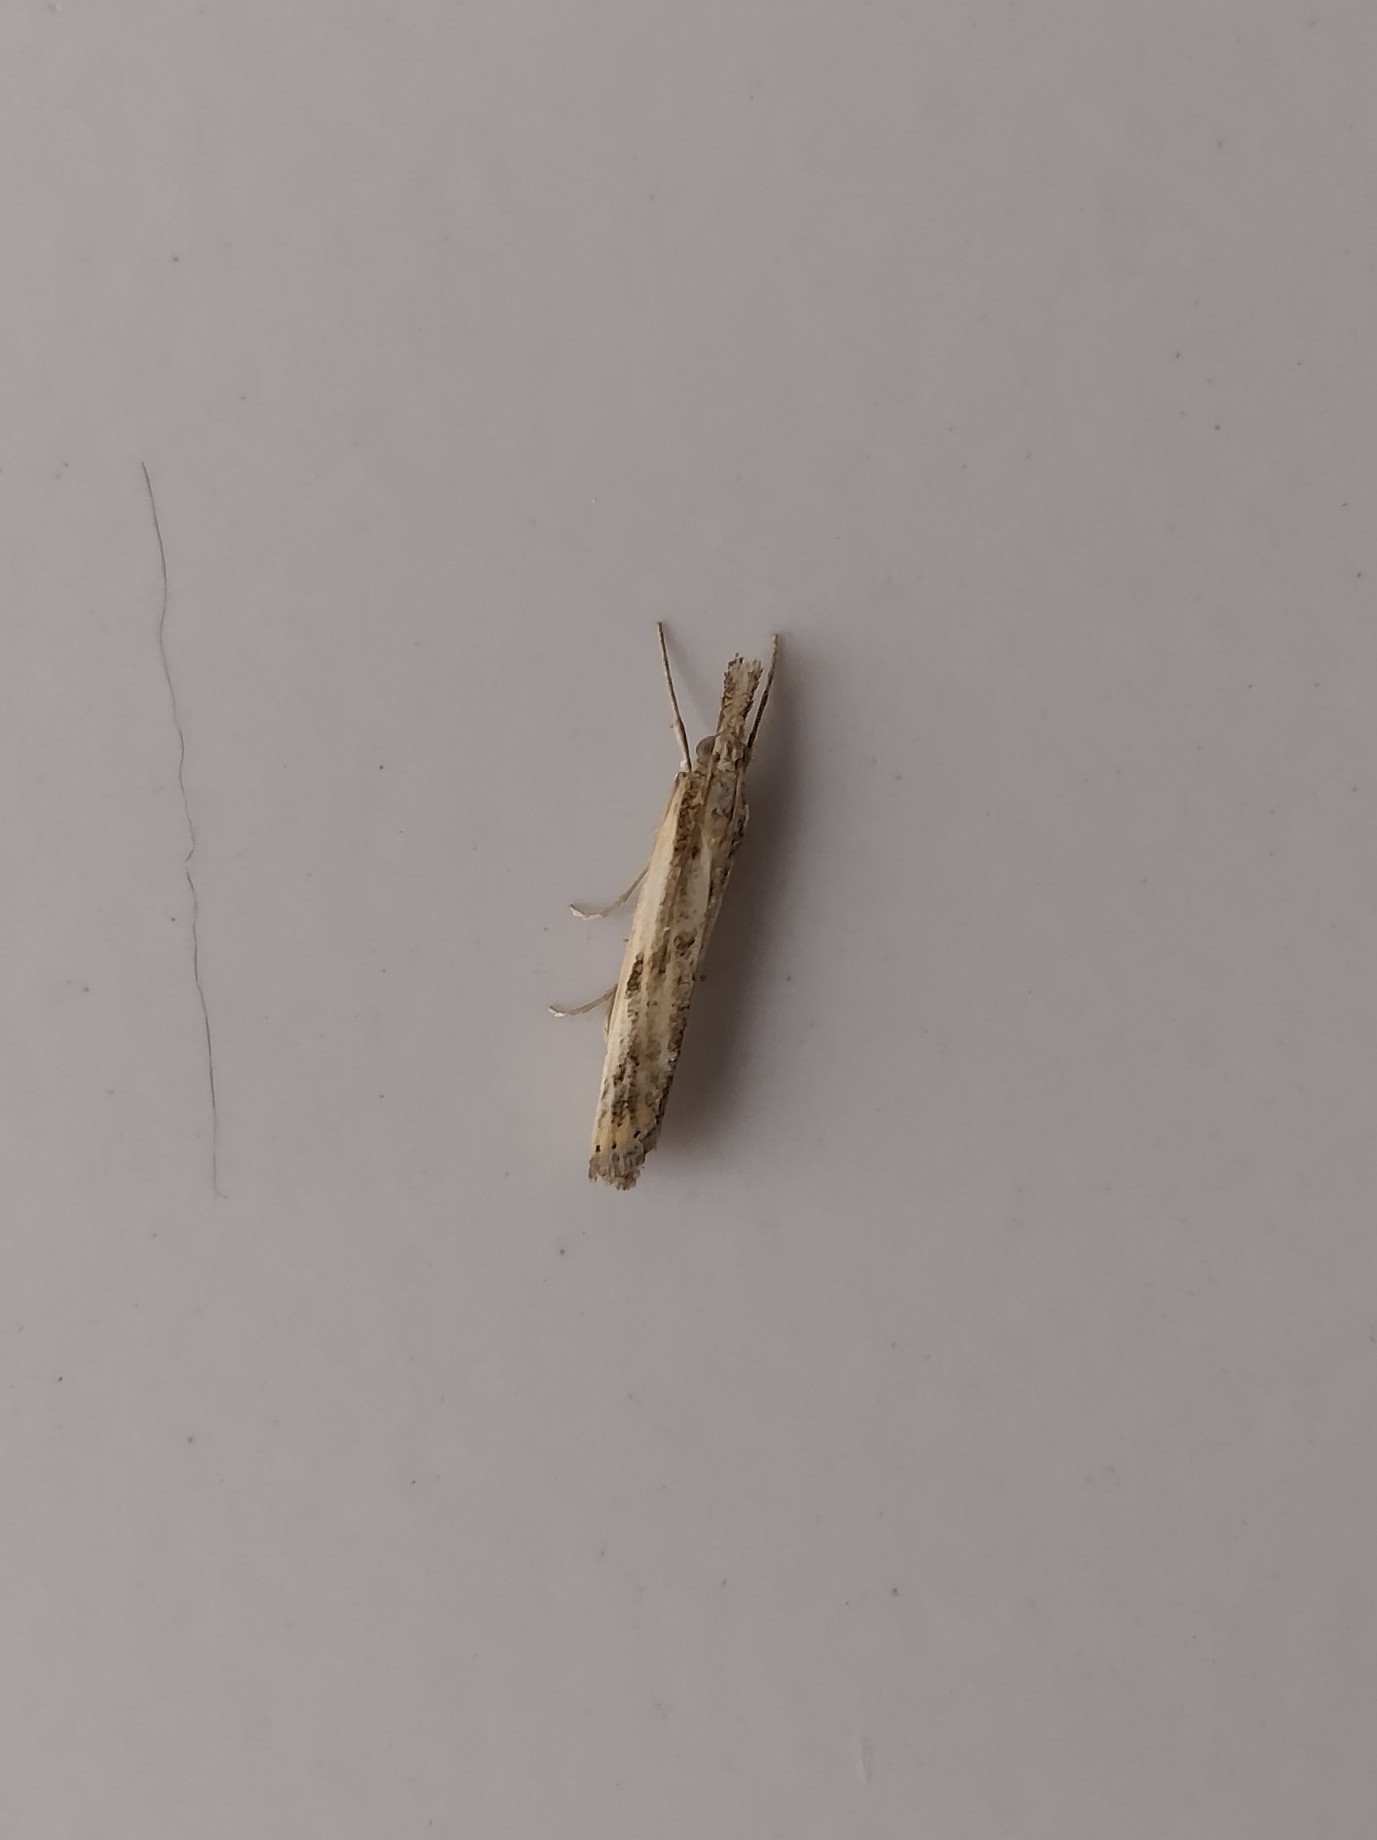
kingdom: Animalia
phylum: Arthropoda
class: Insecta
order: Lepidoptera
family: Crambidae
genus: Agriphila
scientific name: Agriphila inquinatella
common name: Barred grass-veneer
